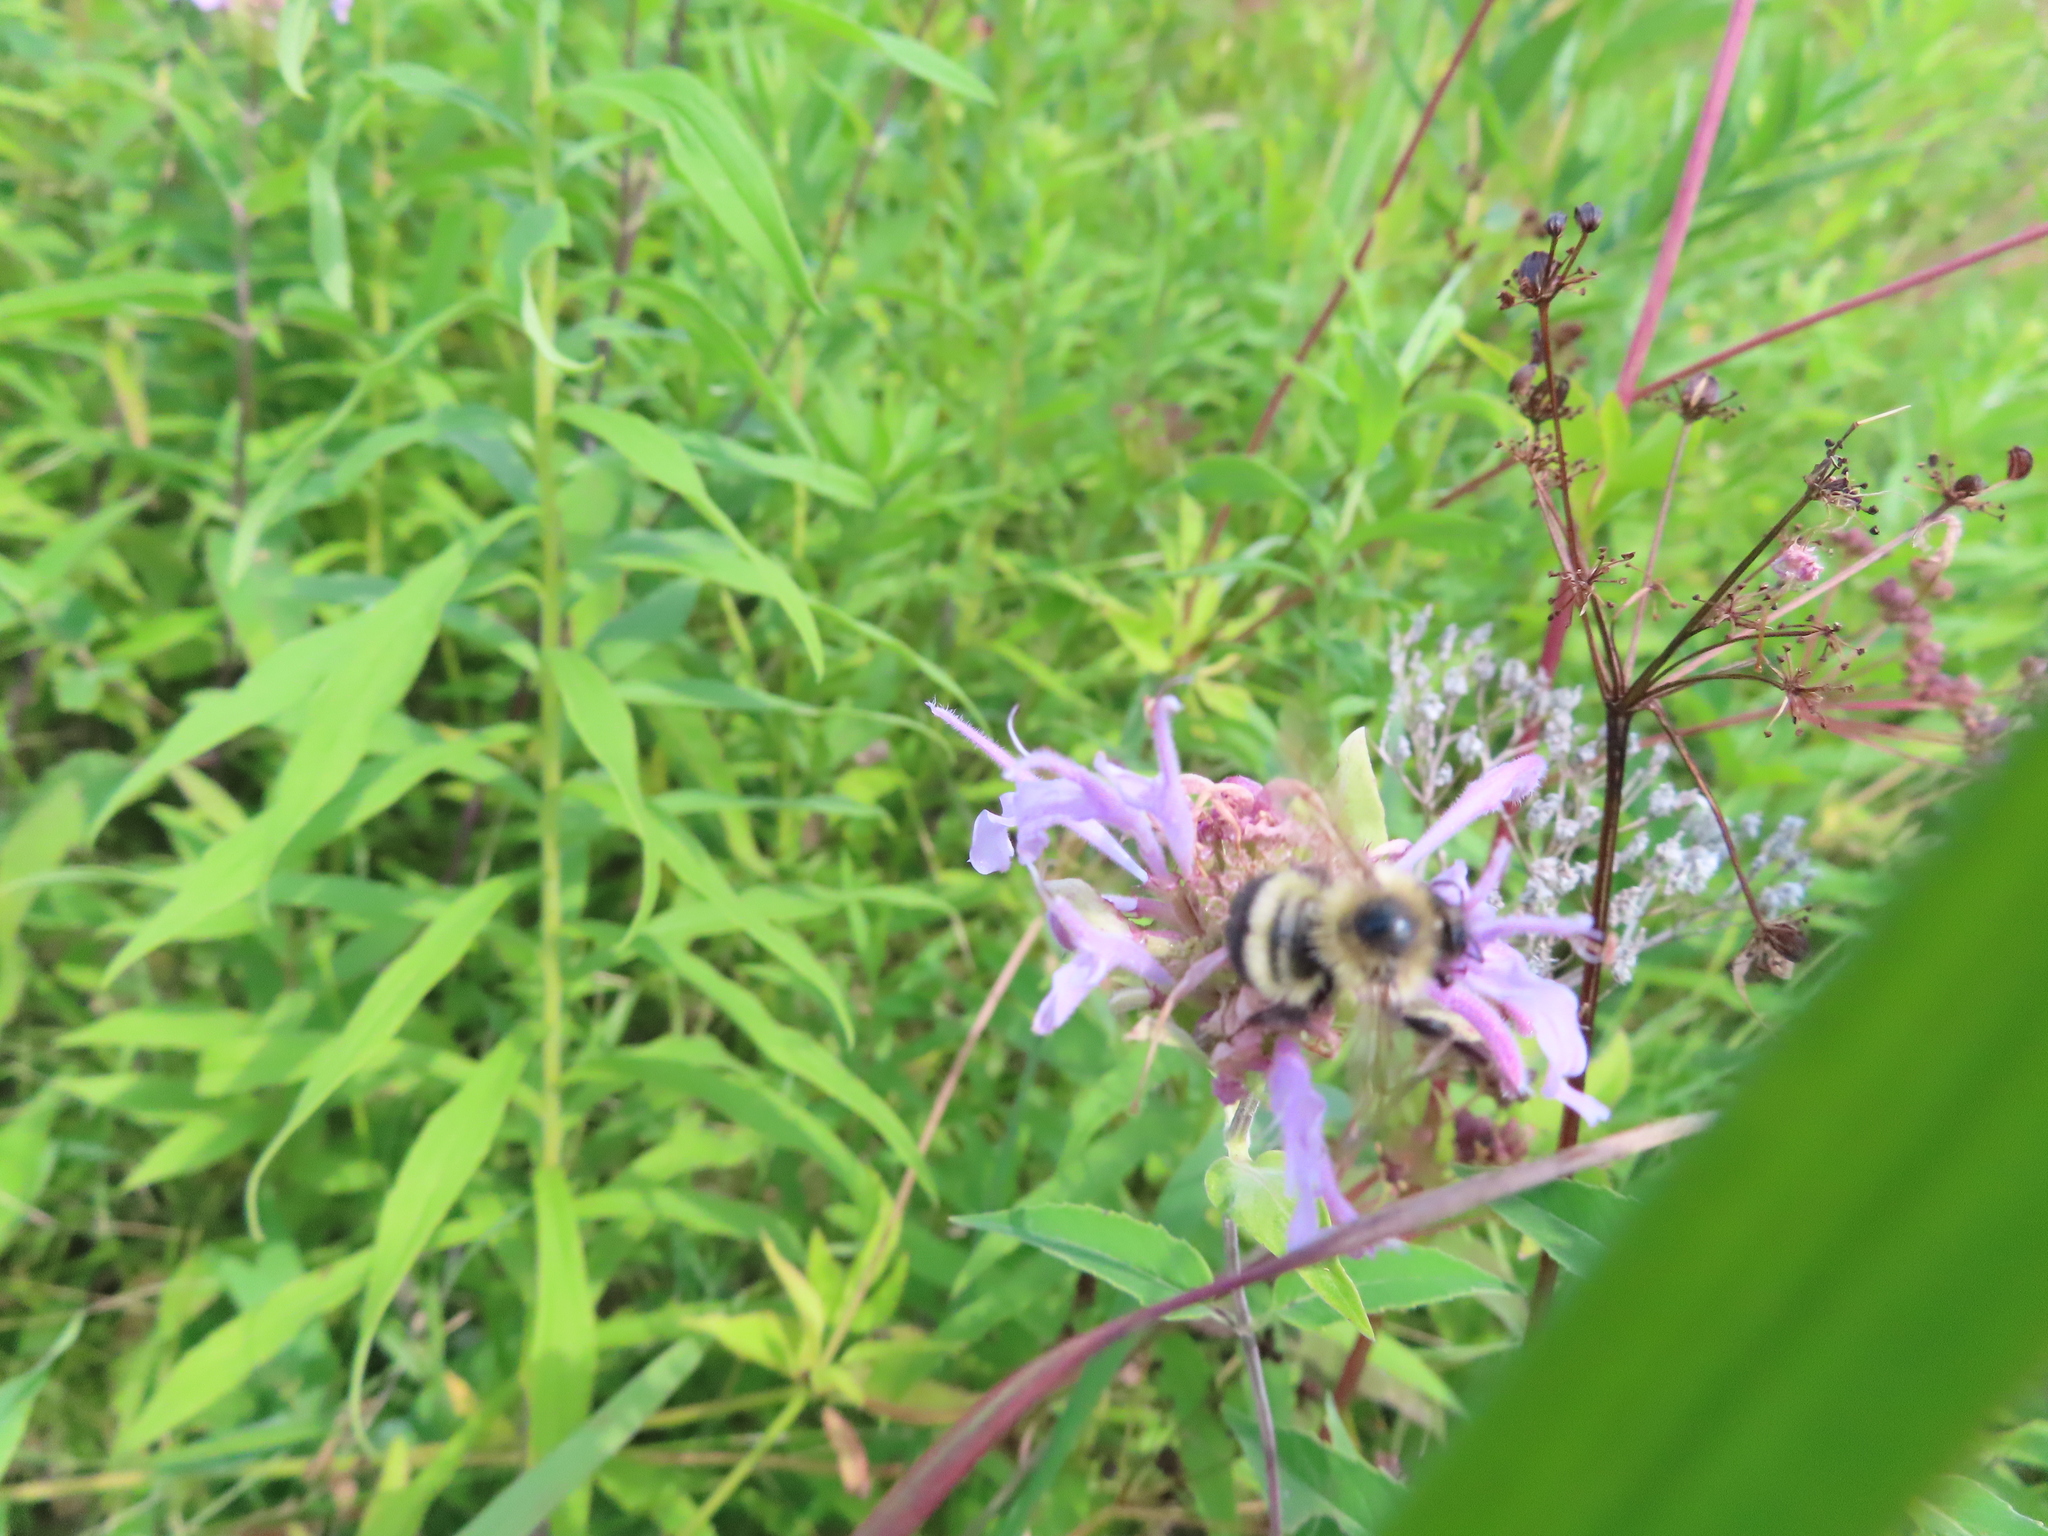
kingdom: Animalia
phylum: Arthropoda
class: Insecta
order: Hymenoptera
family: Apidae
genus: Bombus
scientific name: Bombus vagans
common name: Half-black bumble bee
